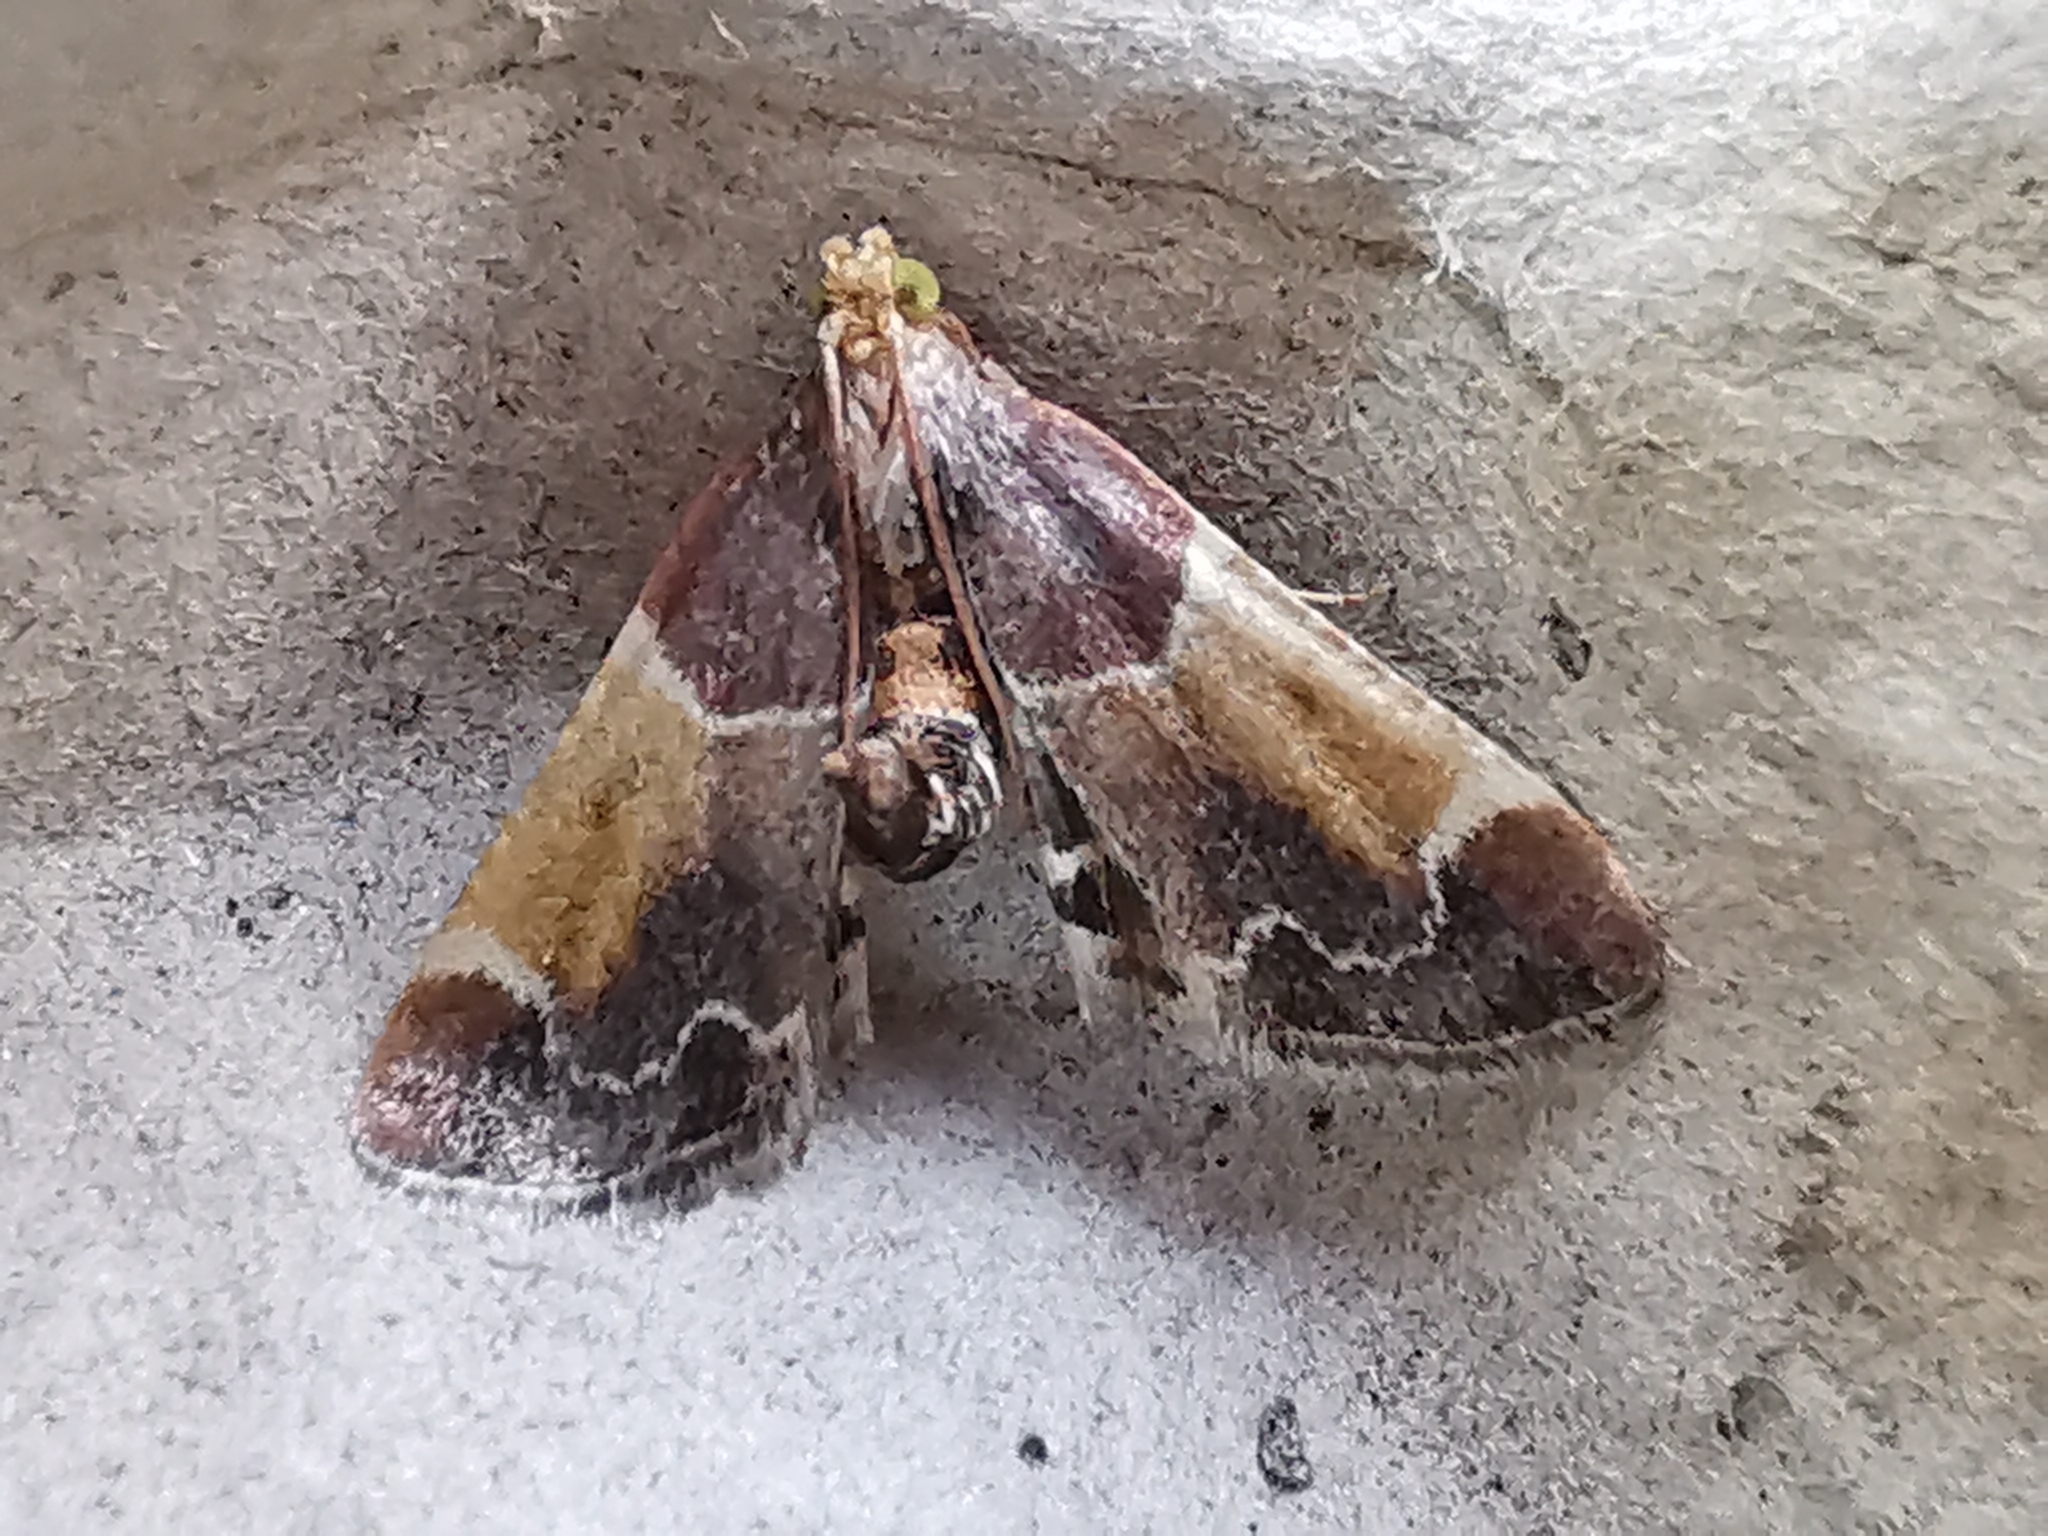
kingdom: Animalia
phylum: Arthropoda
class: Insecta
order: Lepidoptera
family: Pyralidae
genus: Pyralis
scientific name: Pyralis farinalis
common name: Meal moth
